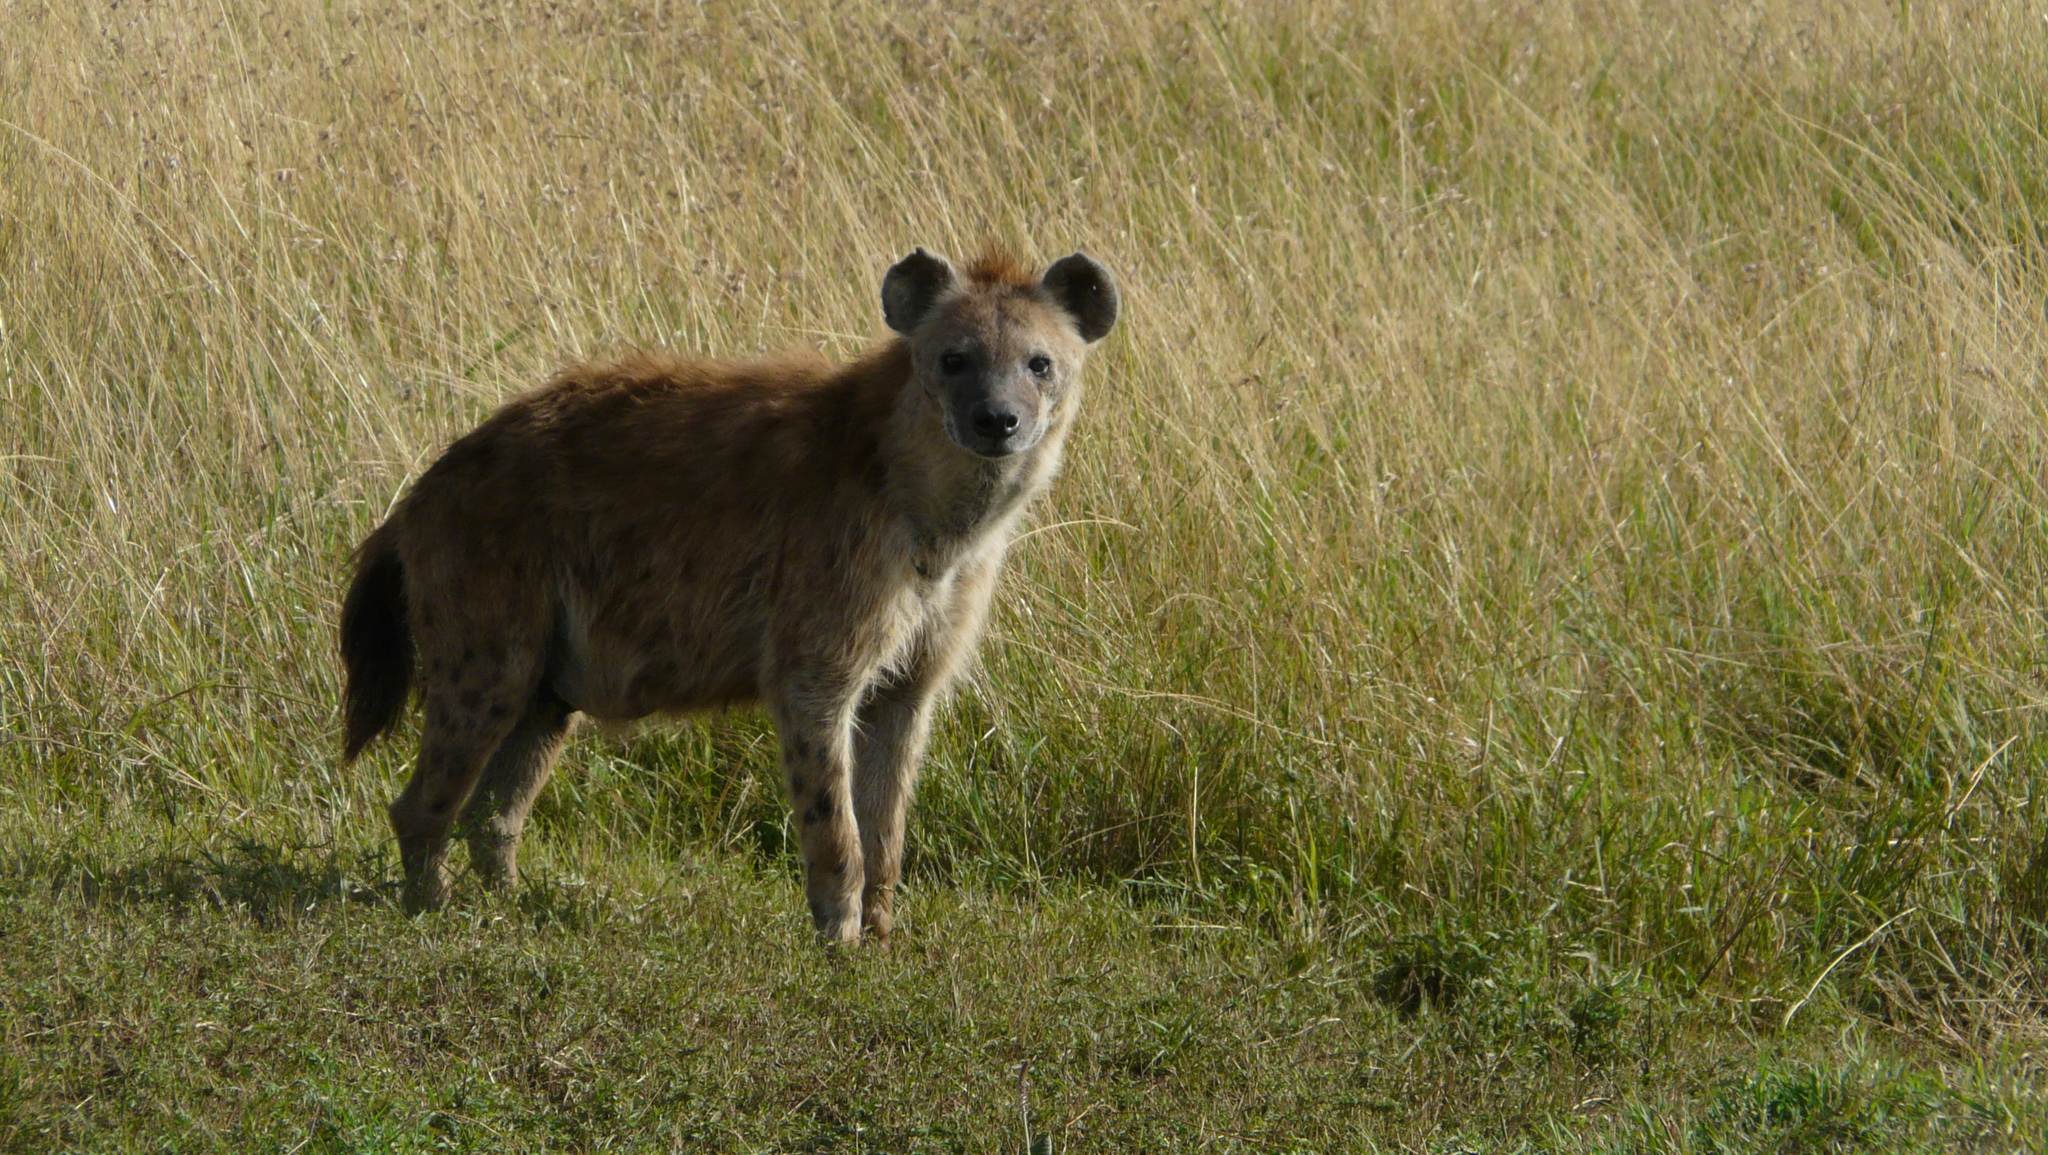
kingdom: Animalia
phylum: Chordata
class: Mammalia
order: Carnivora
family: Hyaenidae
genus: Crocuta
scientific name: Crocuta crocuta
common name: Spotted hyaena
